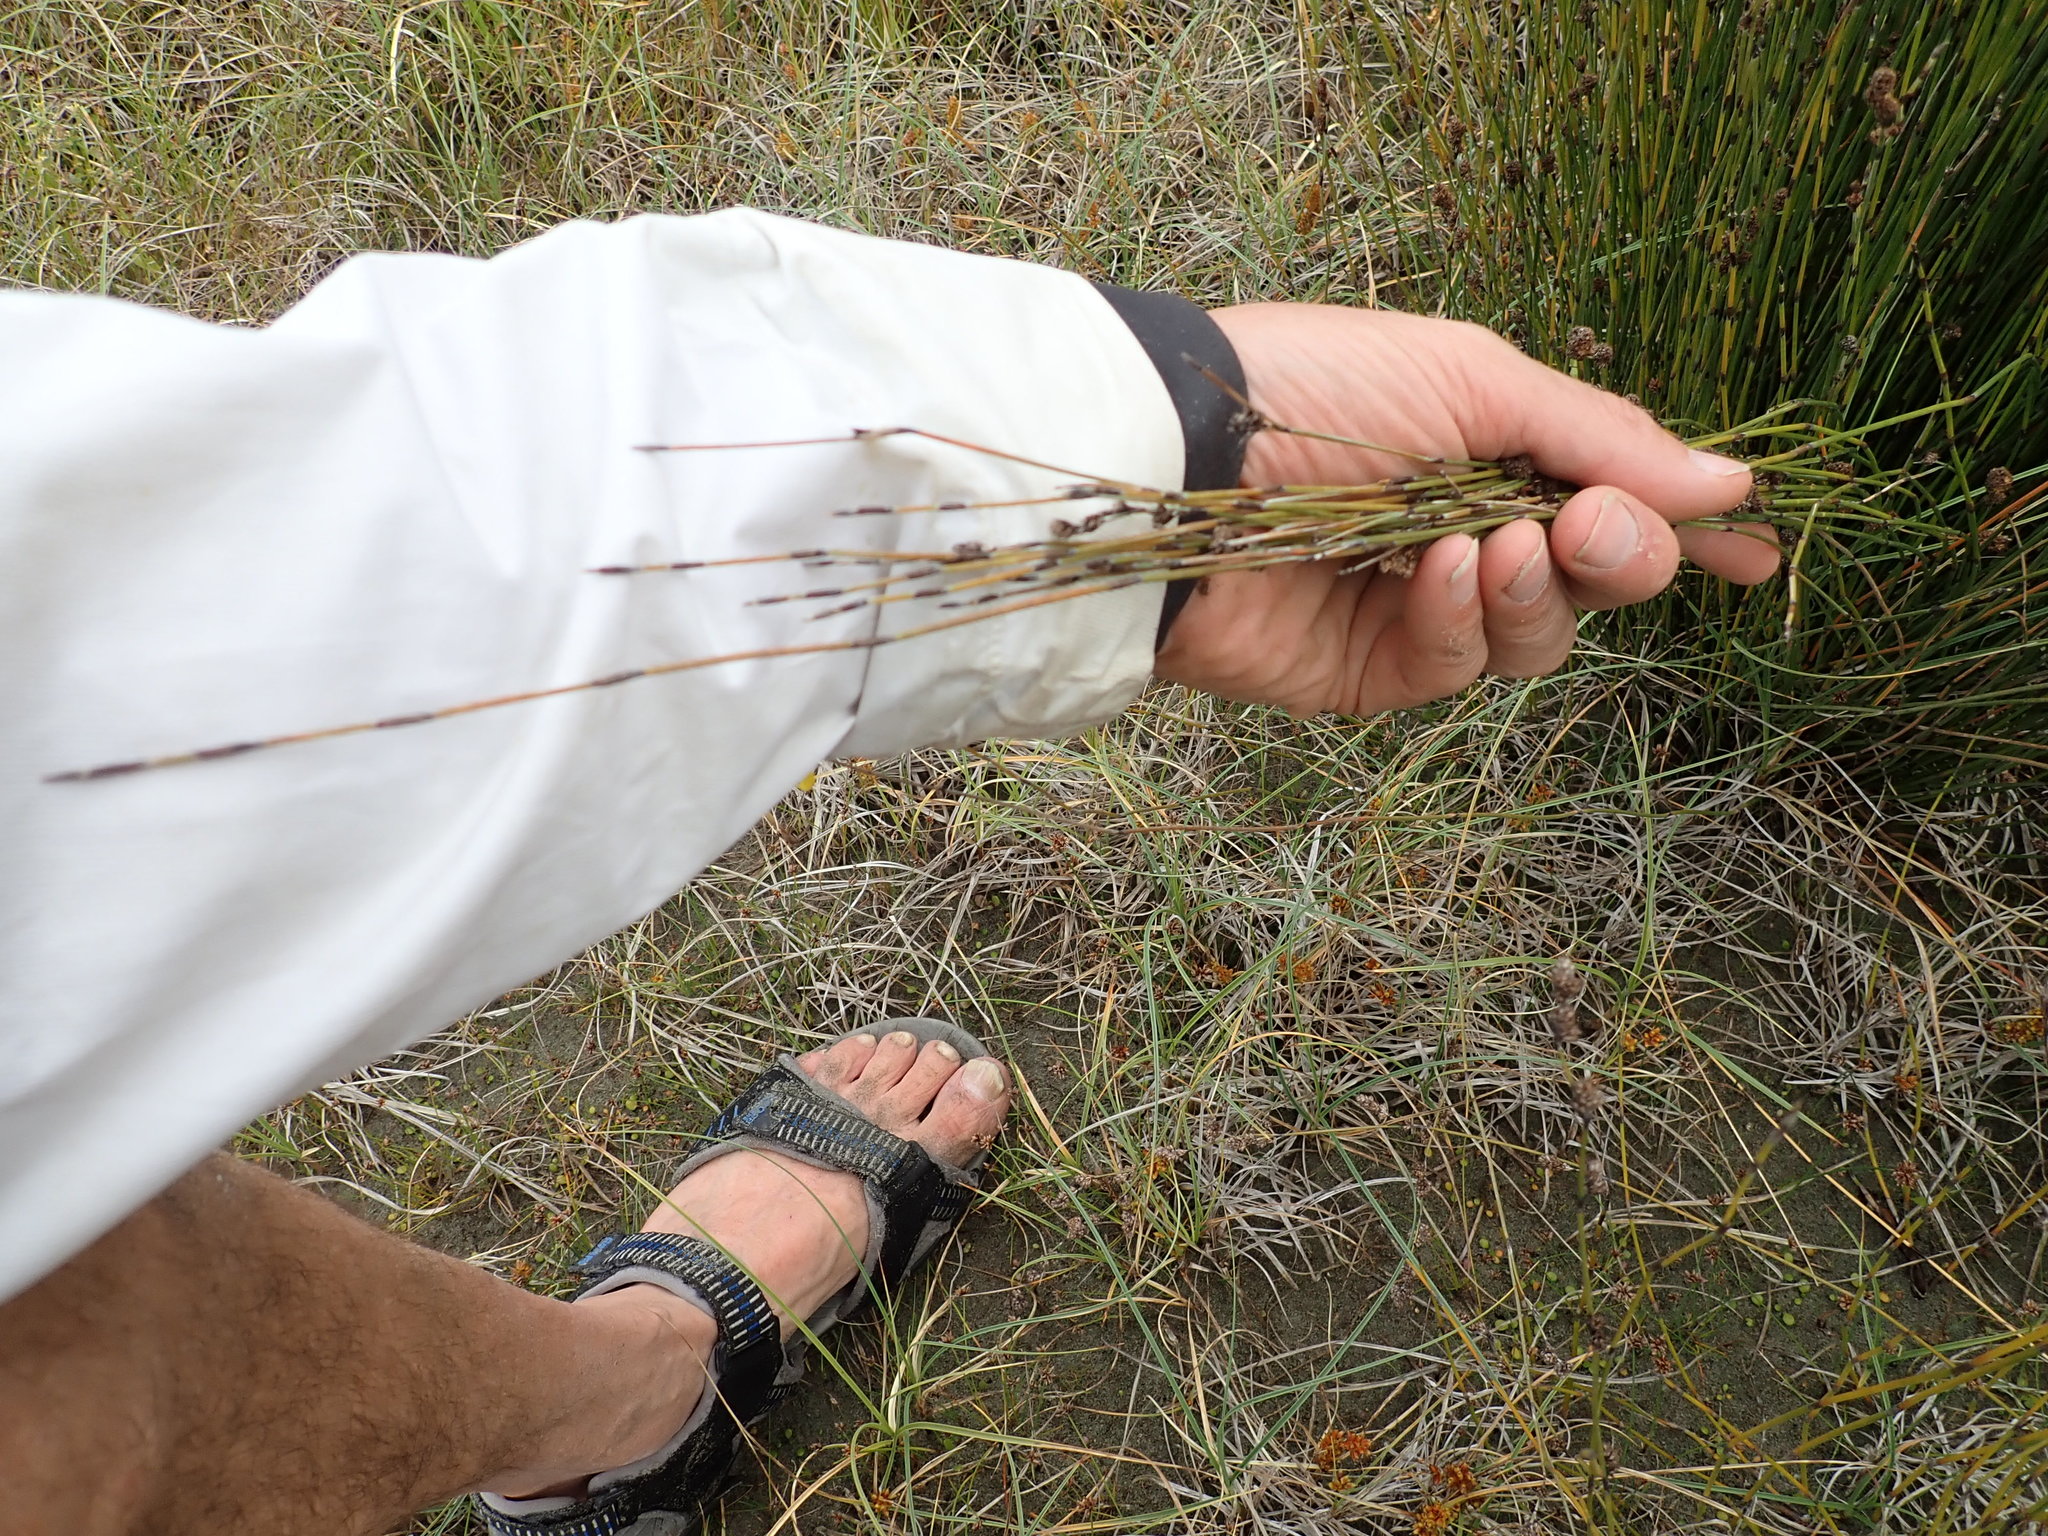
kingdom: Plantae
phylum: Tracheophyta
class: Liliopsida
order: Poales
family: Restionaceae
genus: Apodasmia
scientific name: Apodasmia similis
